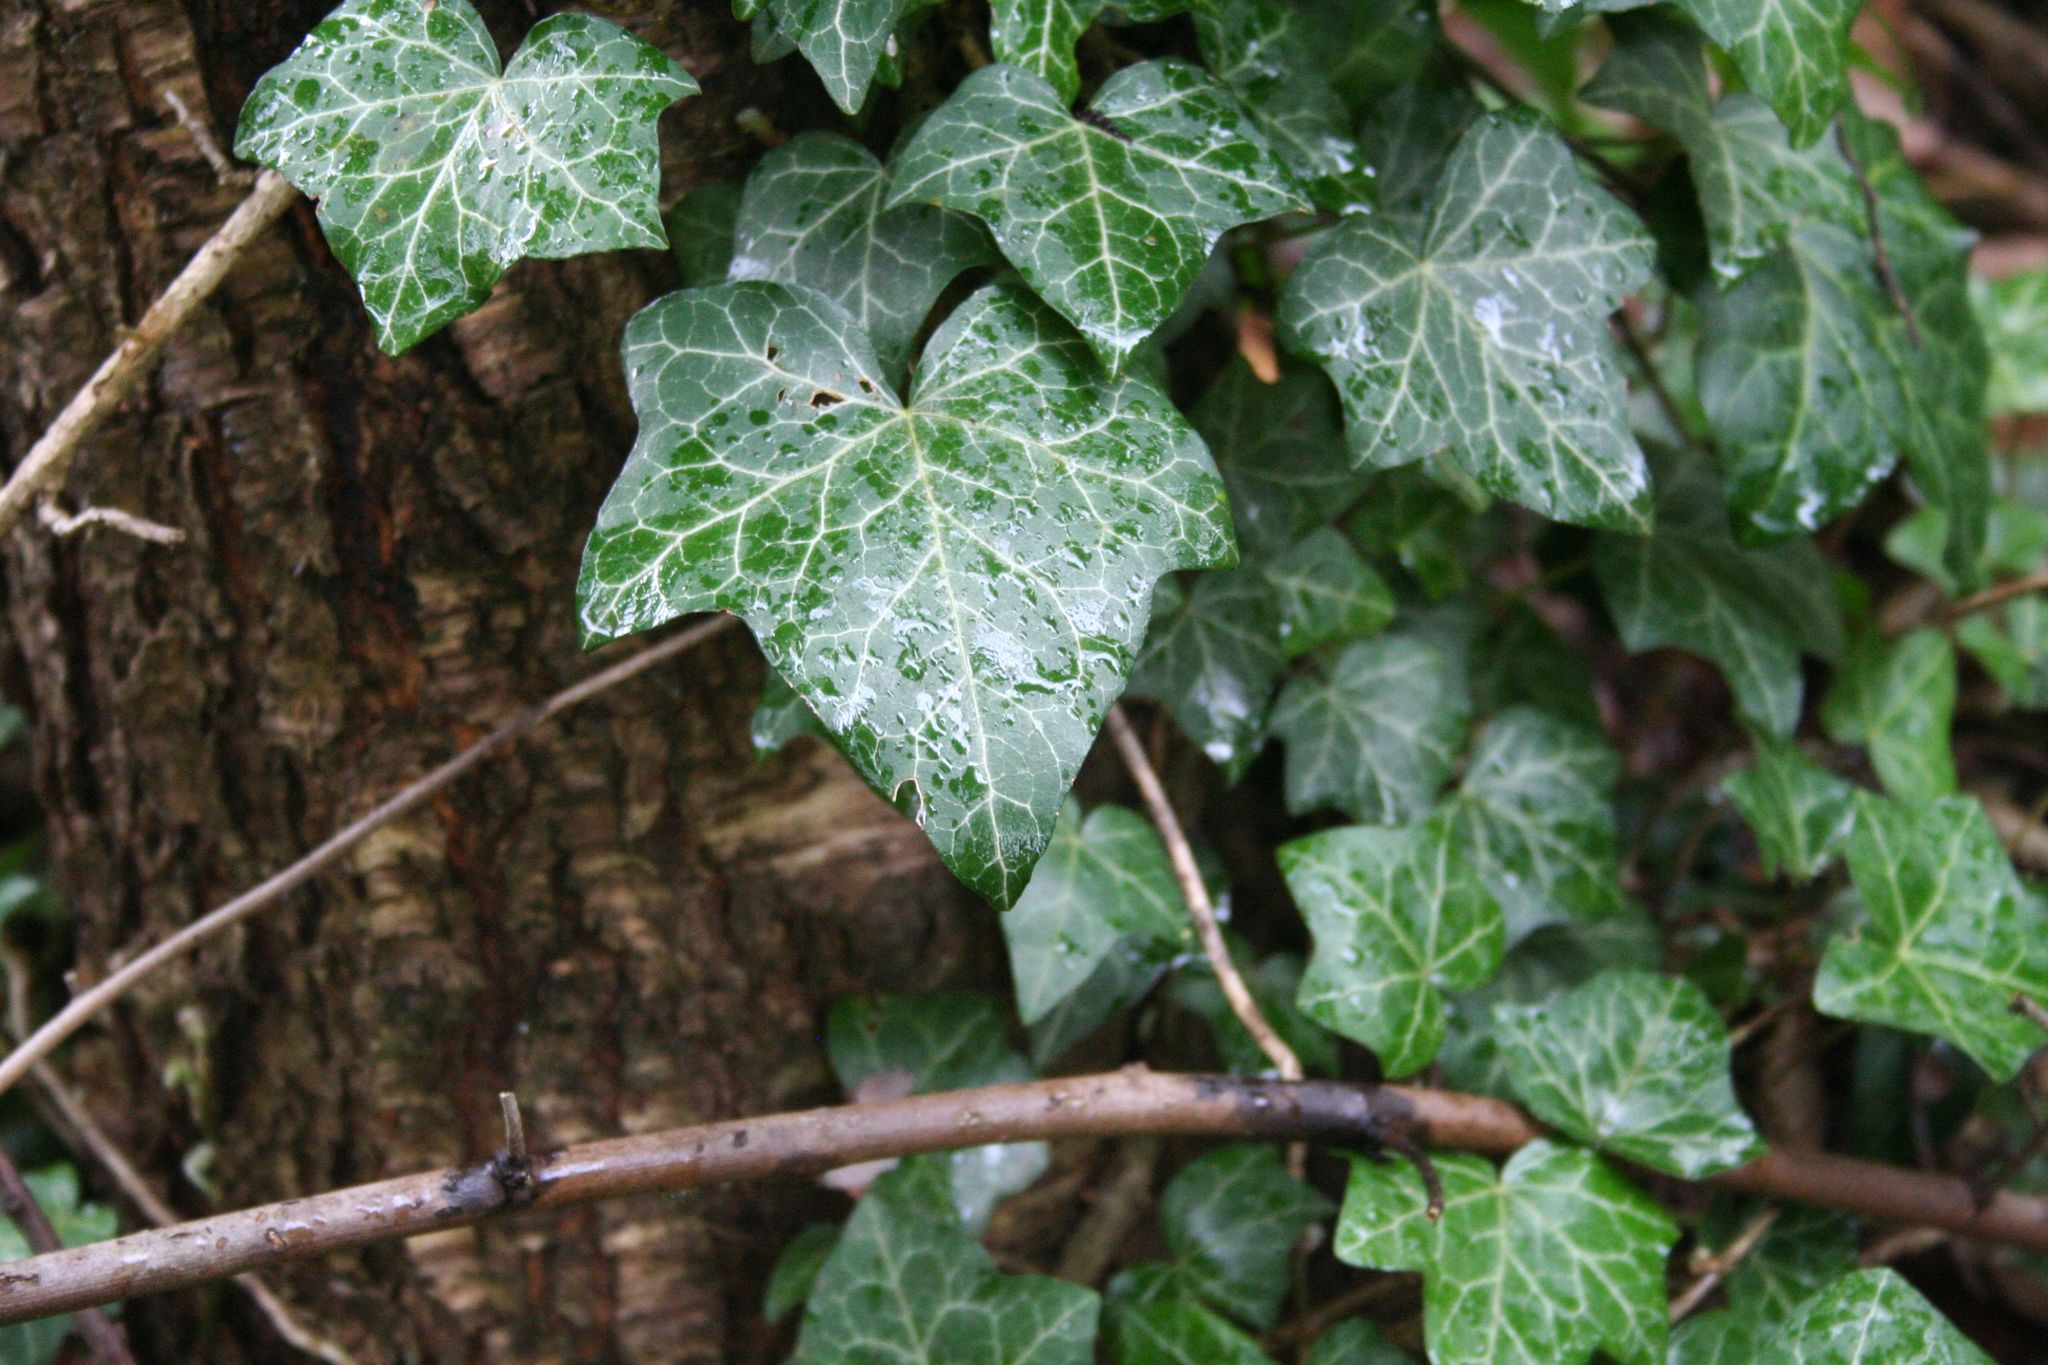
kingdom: Plantae
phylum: Tracheophyta
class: Magnoliopsida
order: Apiales
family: Araliaceae
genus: Hedera
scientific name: Hedera helix
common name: Ivy
